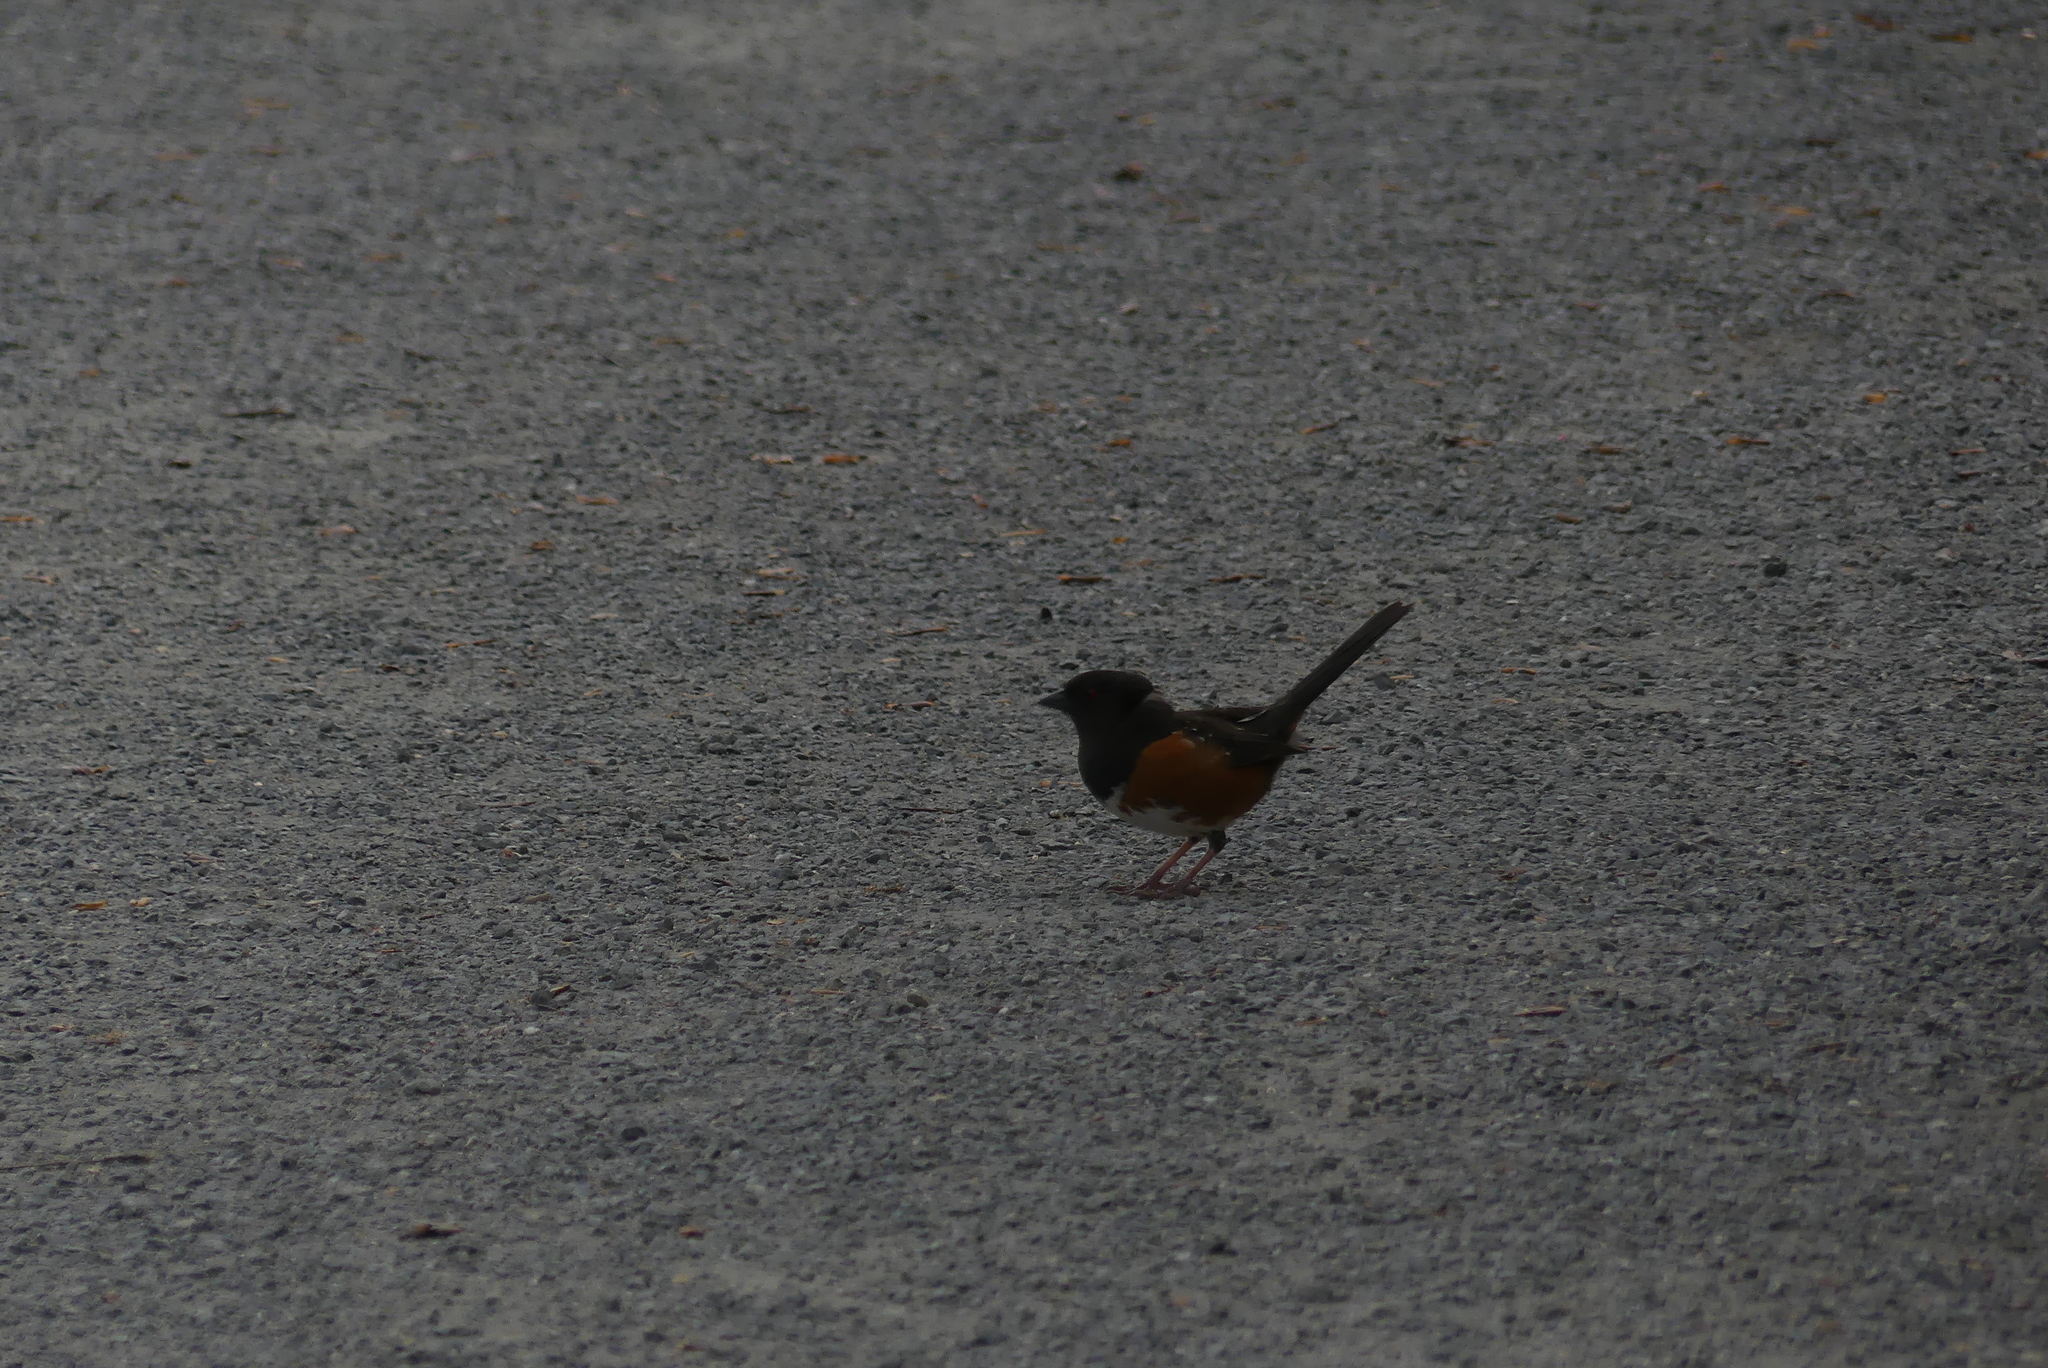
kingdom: Animalia
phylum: Chordata
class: Aves
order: Passeriformes
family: Passerellidae
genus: Pipilo
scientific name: Pipilo maculatus
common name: Spotted towhee
